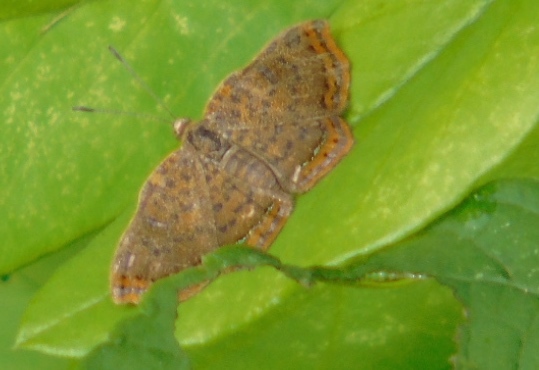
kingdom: Animalia
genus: Caria
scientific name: Caria ino
